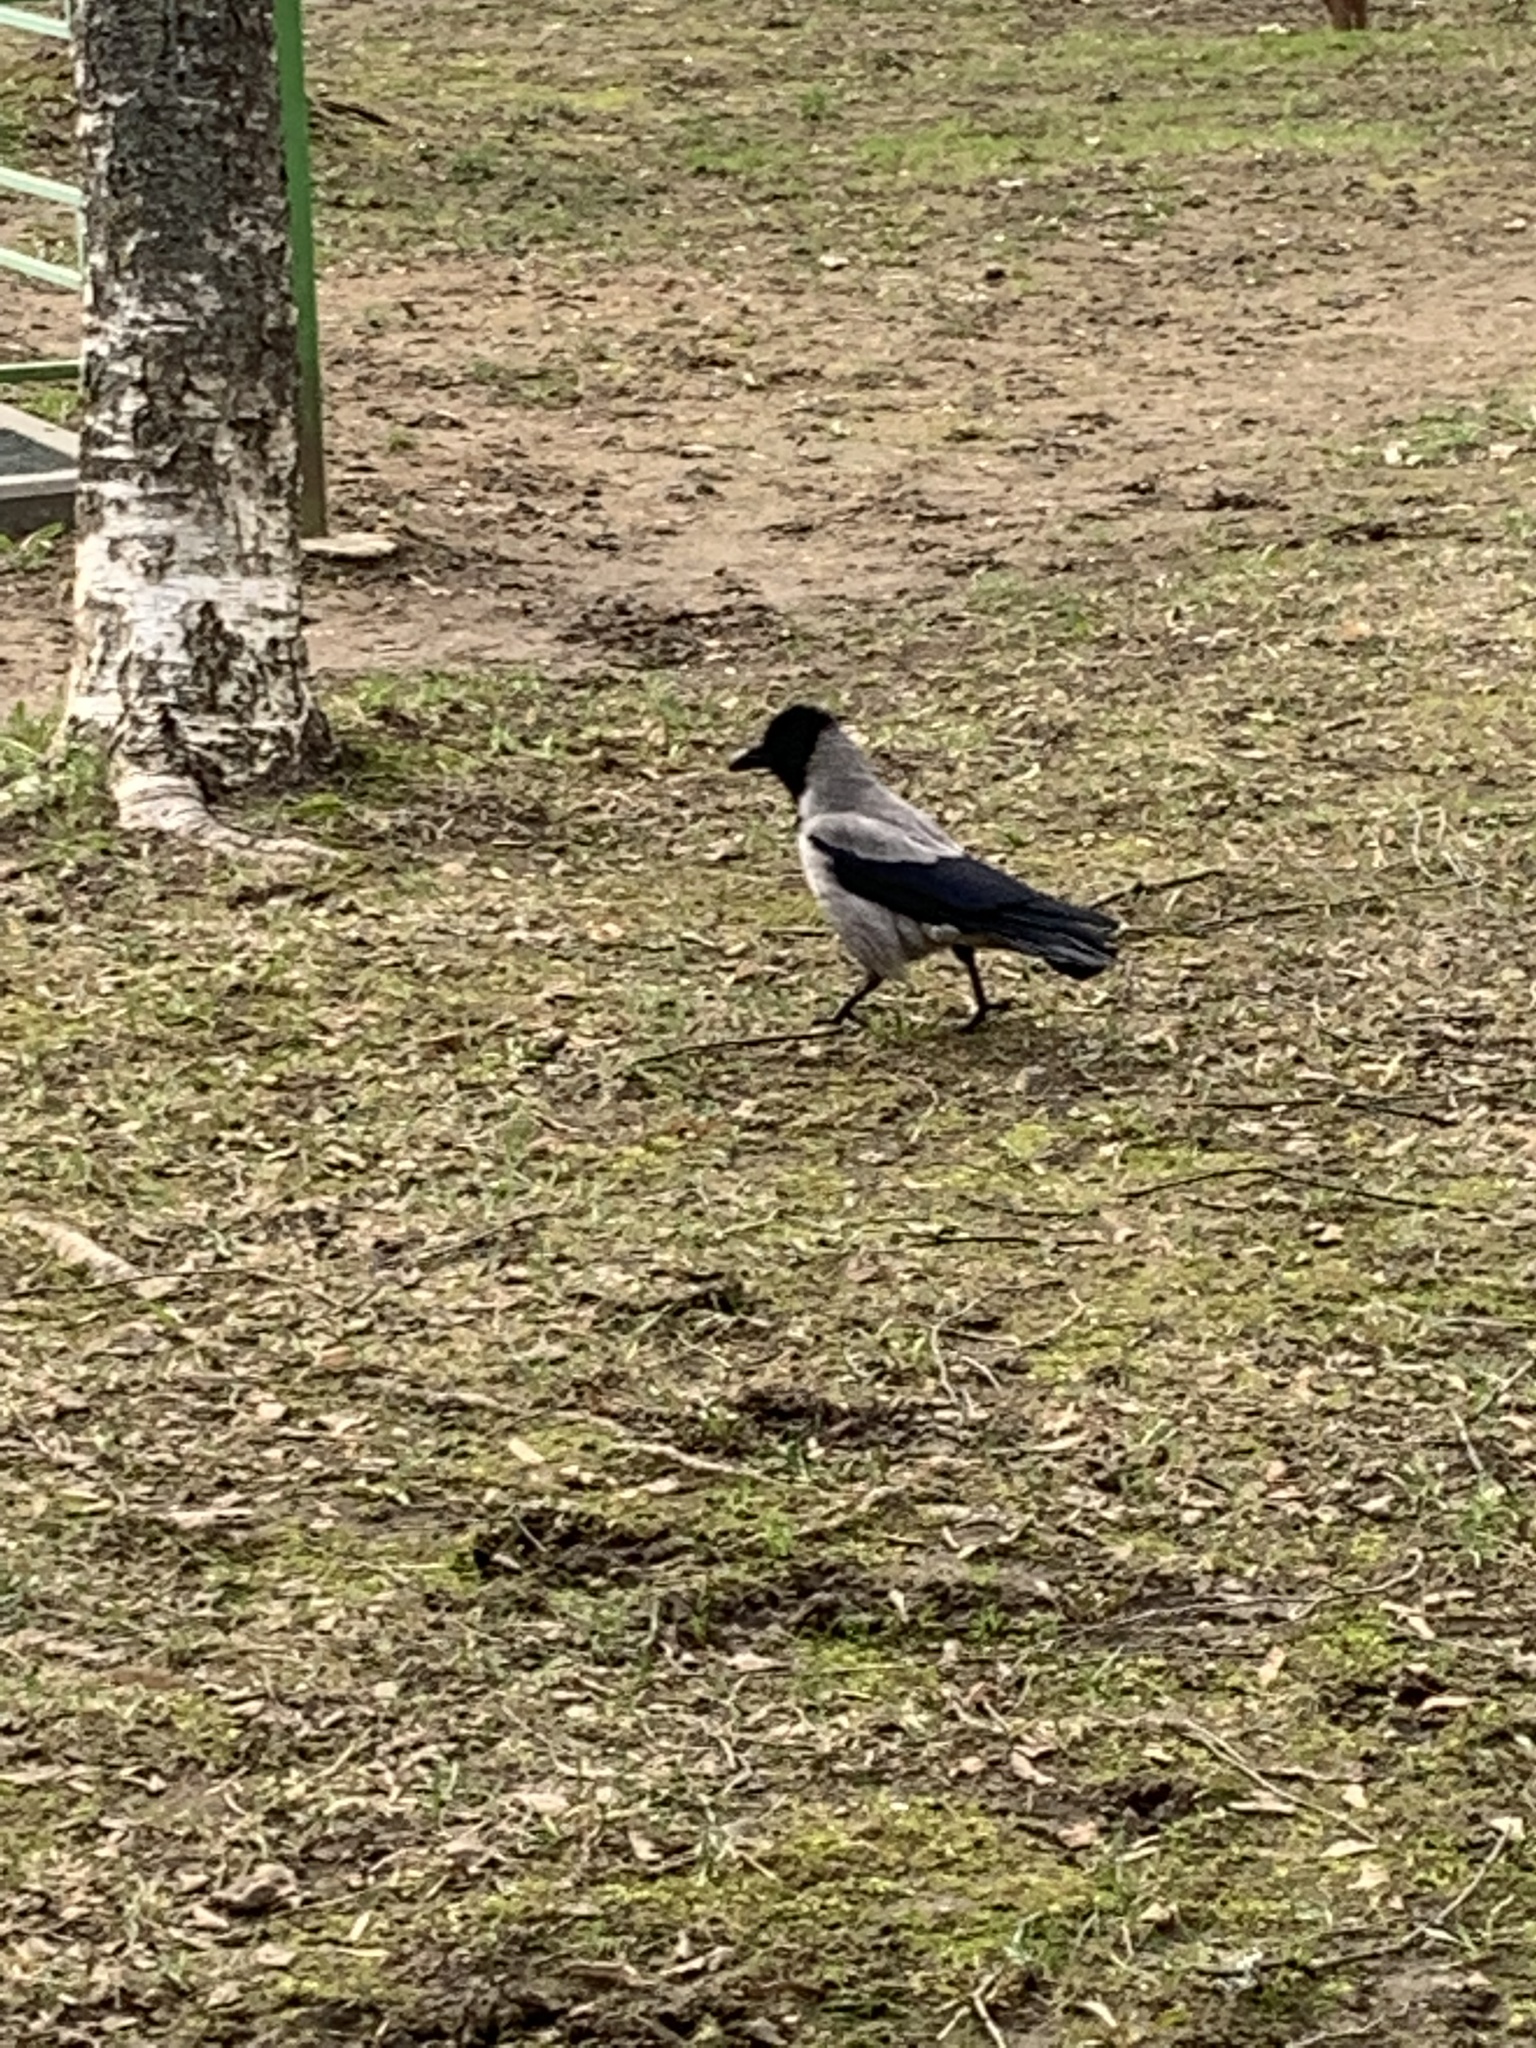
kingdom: Animalia
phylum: Chordata
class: Aves
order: Passeriformes
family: Corvidae
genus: Corvus
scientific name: Corvus cornix
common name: Hooded crow
